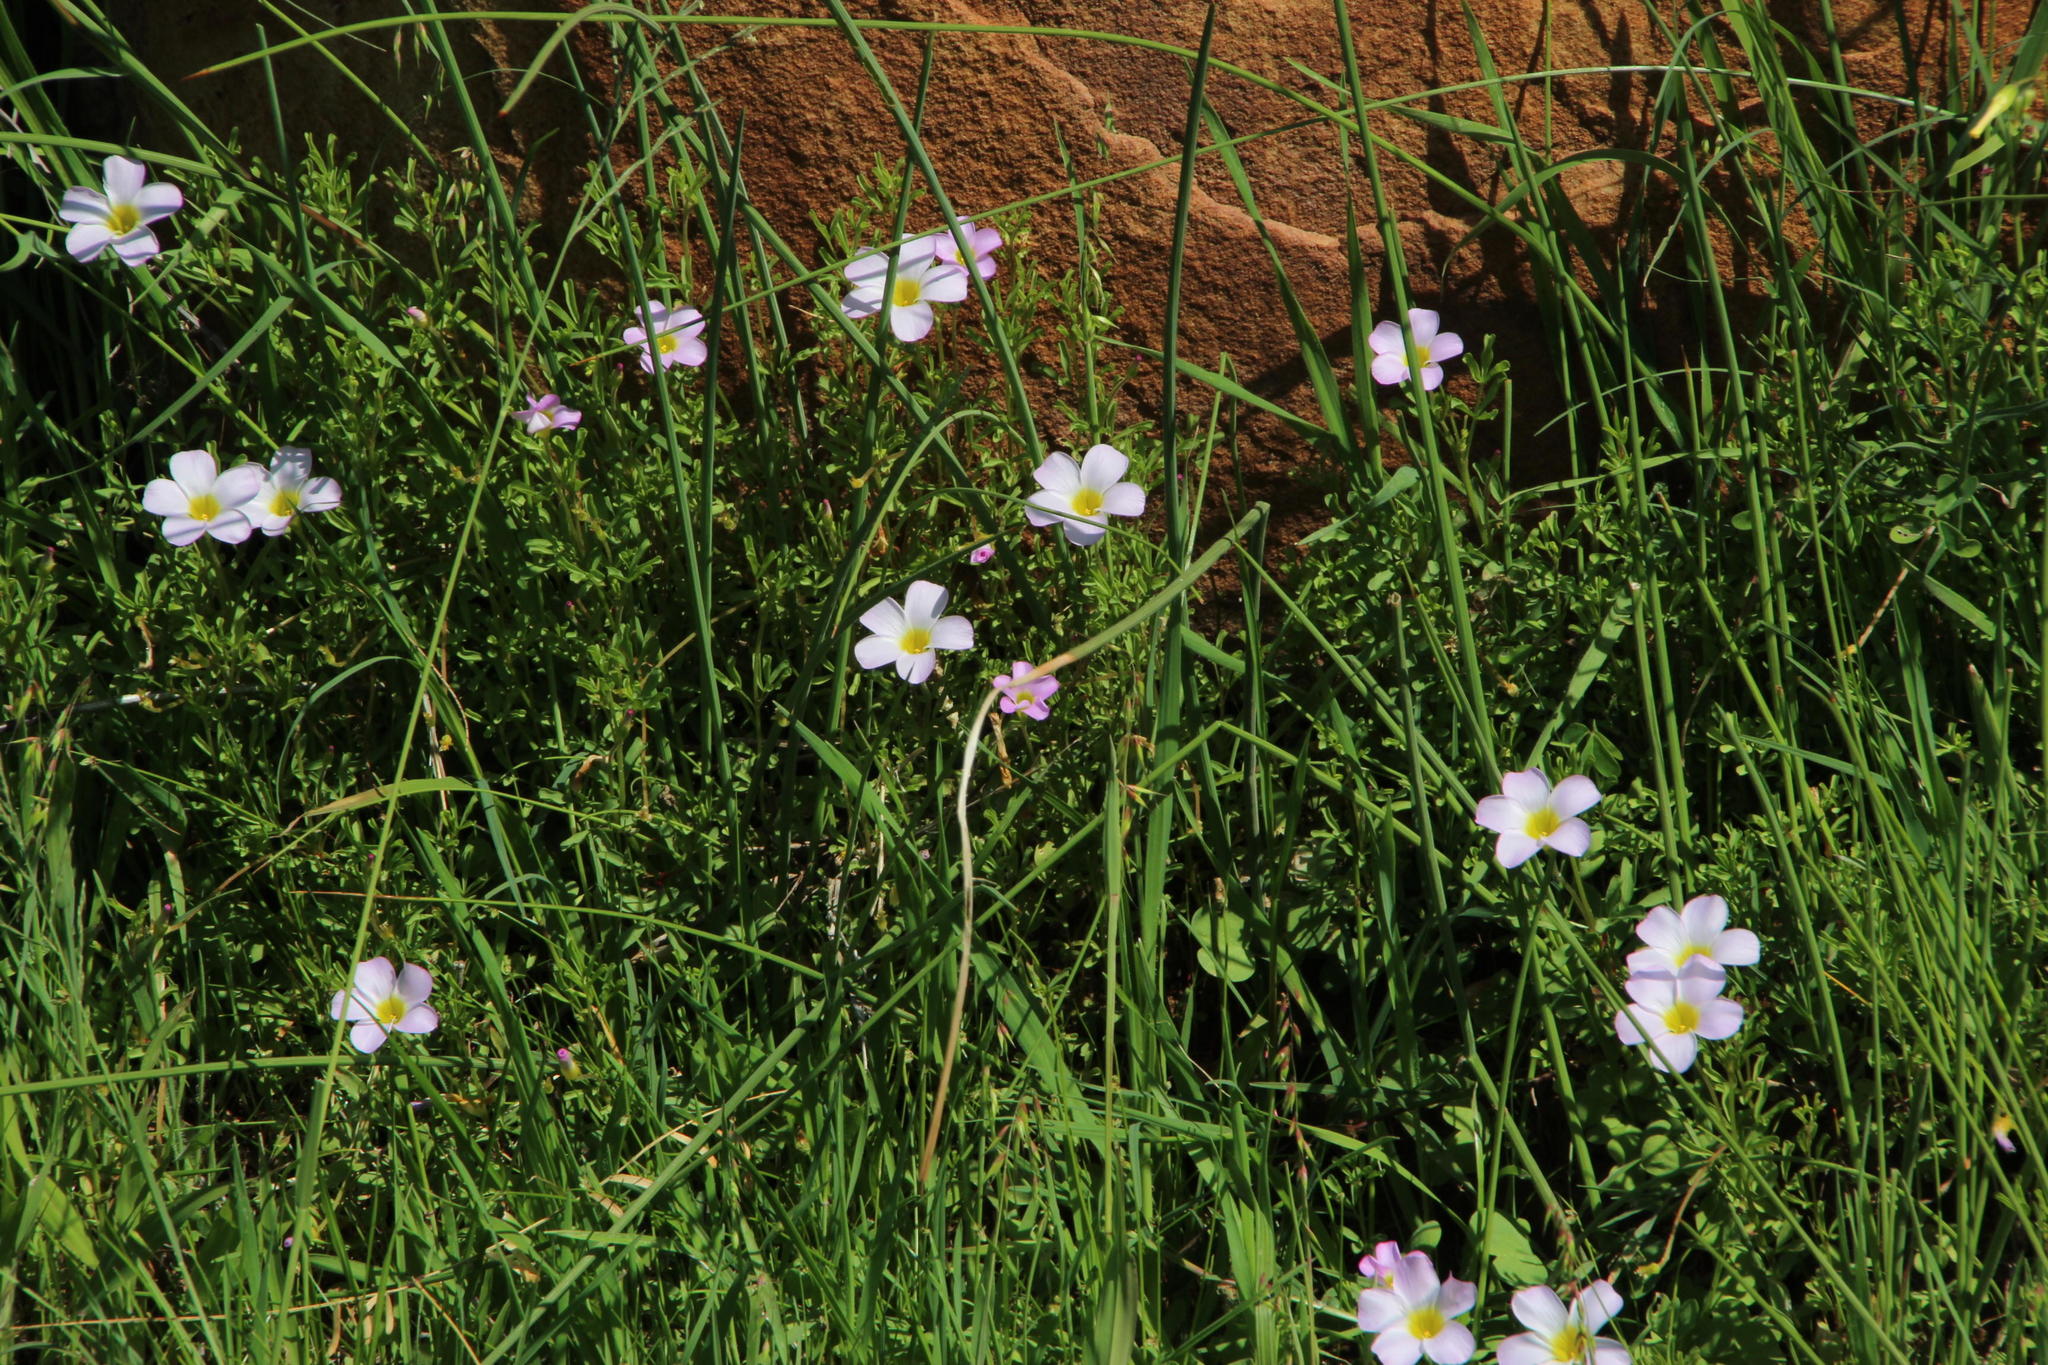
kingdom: Plantae
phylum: Tracheophyta
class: Magnoliopsida
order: Oxalidales
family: Oxalidaceae
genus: Oxalis
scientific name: Oxalis recticaulis
